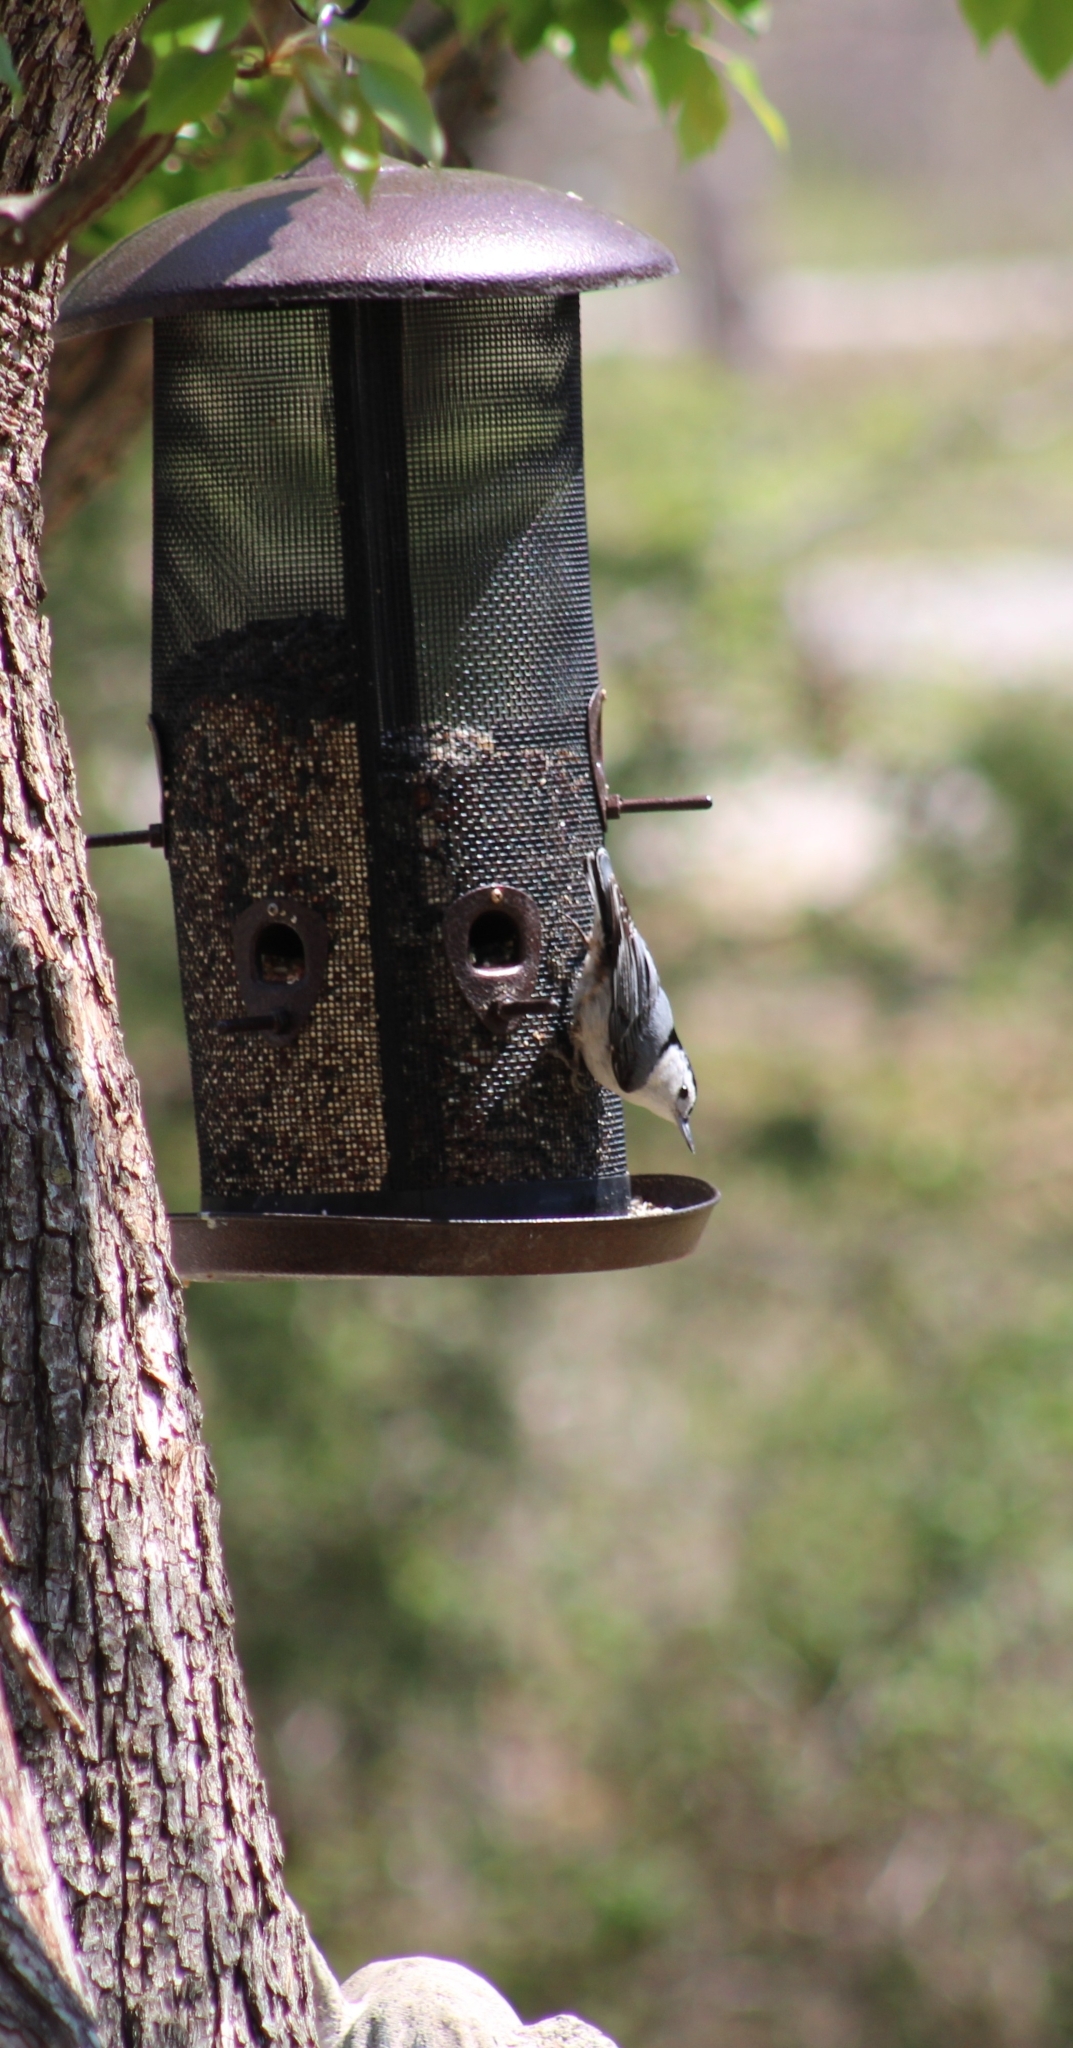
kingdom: Animalia
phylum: Chordata
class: Aves
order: Passeriformes
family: Sittidae
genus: Sitta
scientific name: Sitta carolinensis
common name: White-breasted nuthatch
